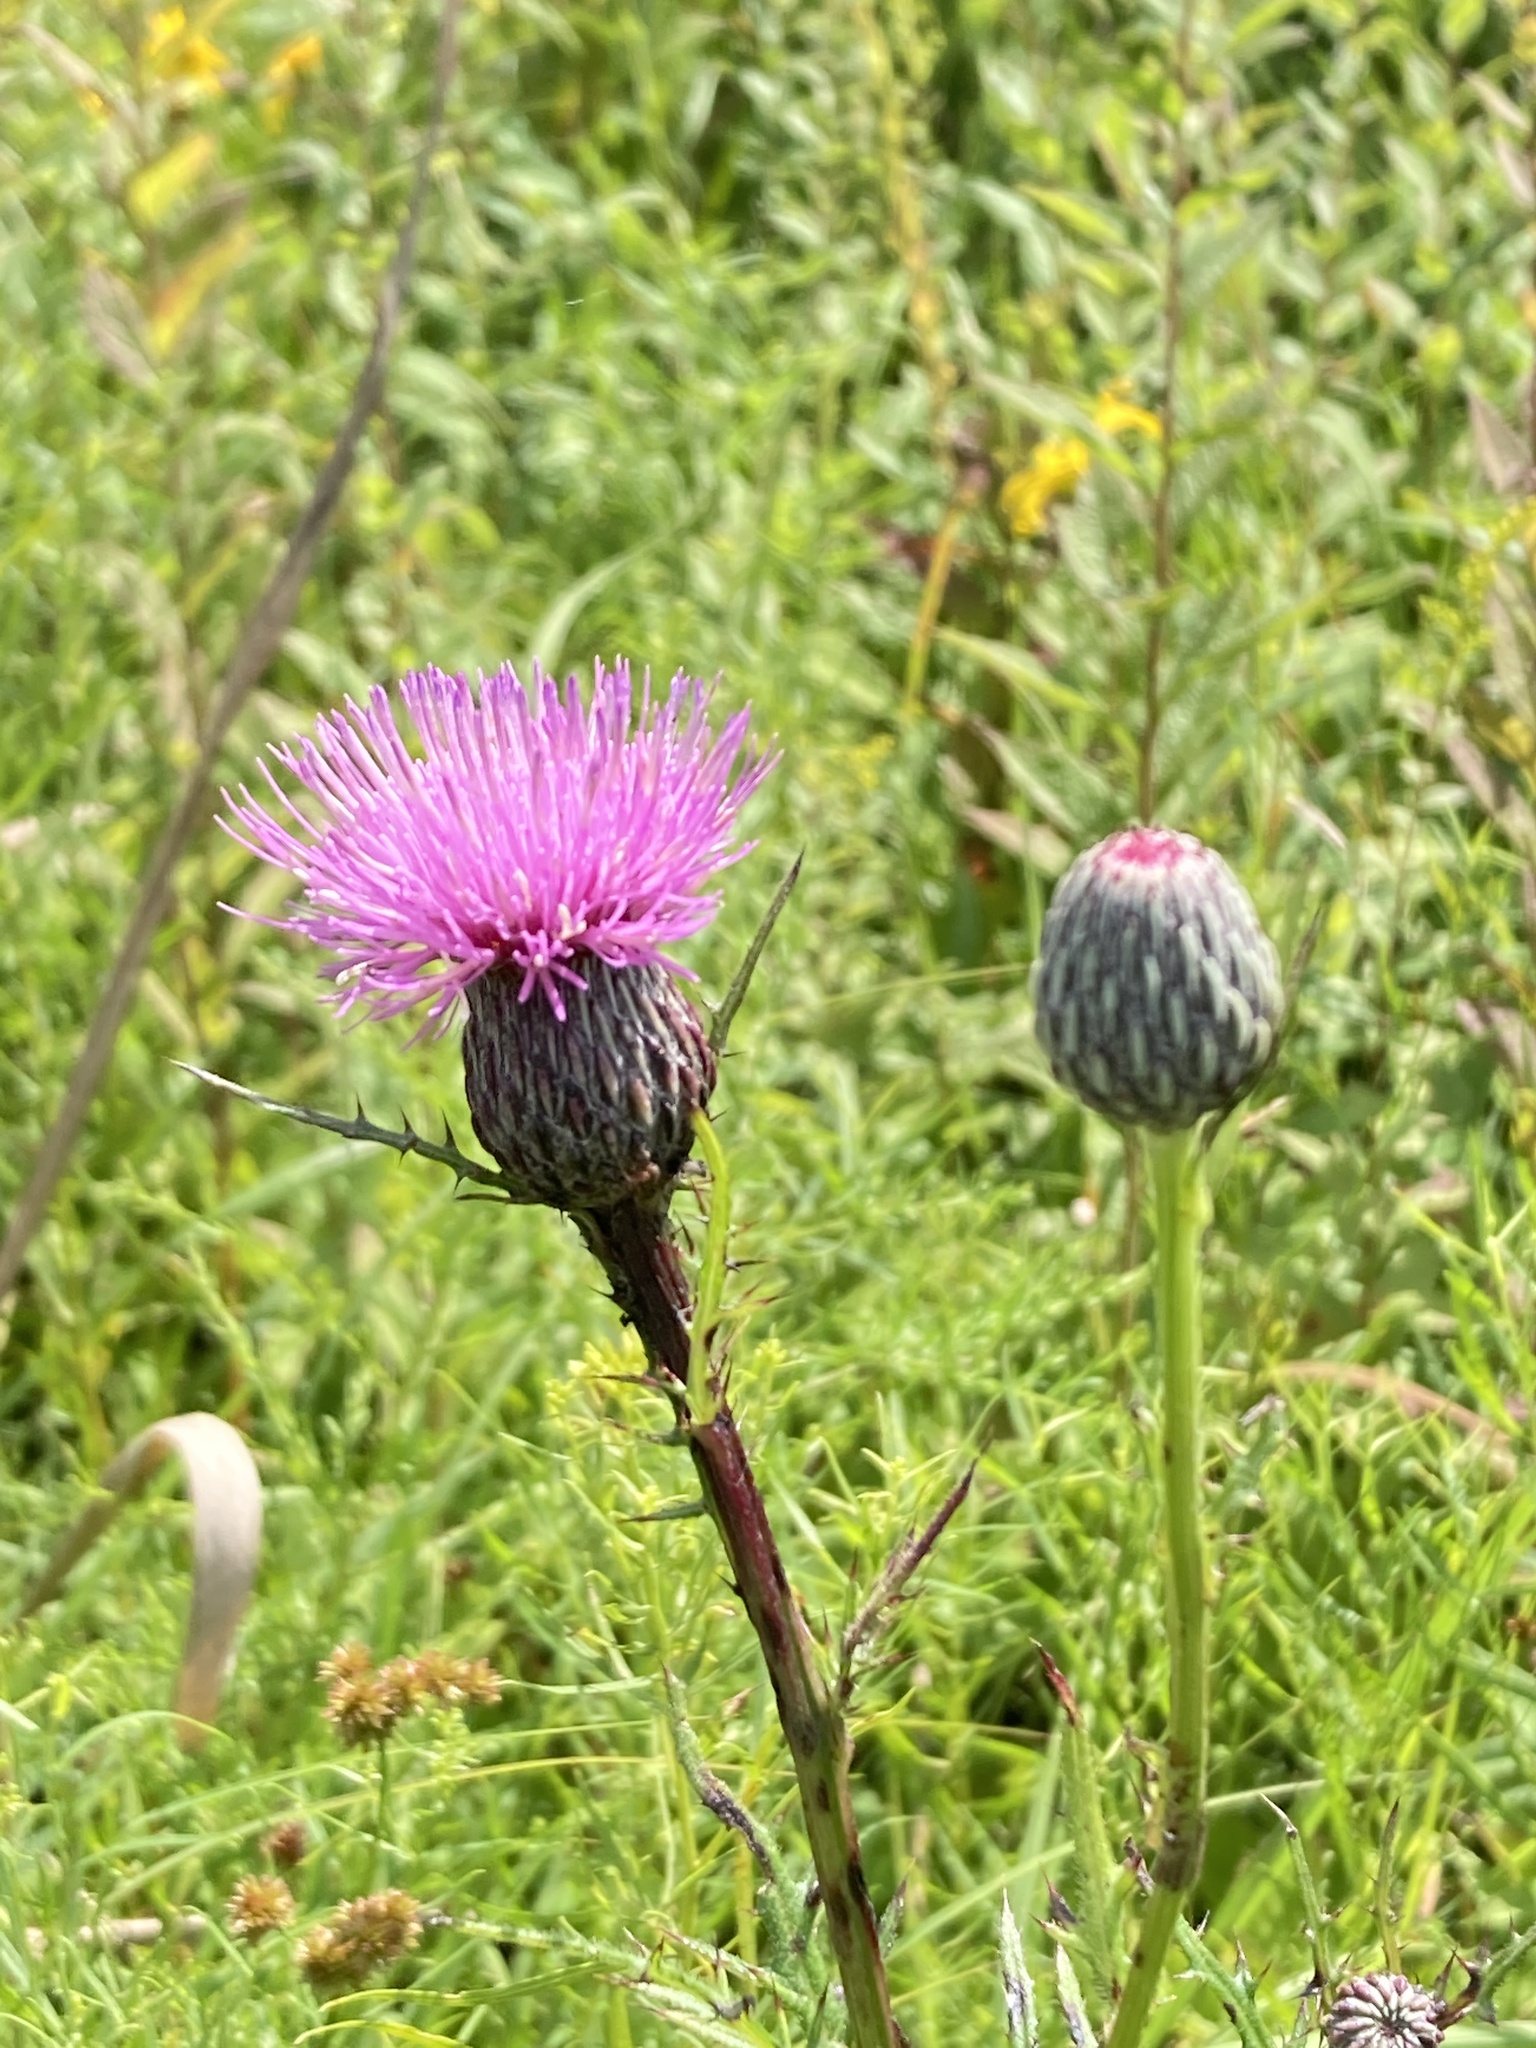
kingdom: Plantae
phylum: Tracheophyta
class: Magnoliopsida
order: Asterales
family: Asteraceae
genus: Cirsium
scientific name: Cirsium muticum
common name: Dunce-nettle
